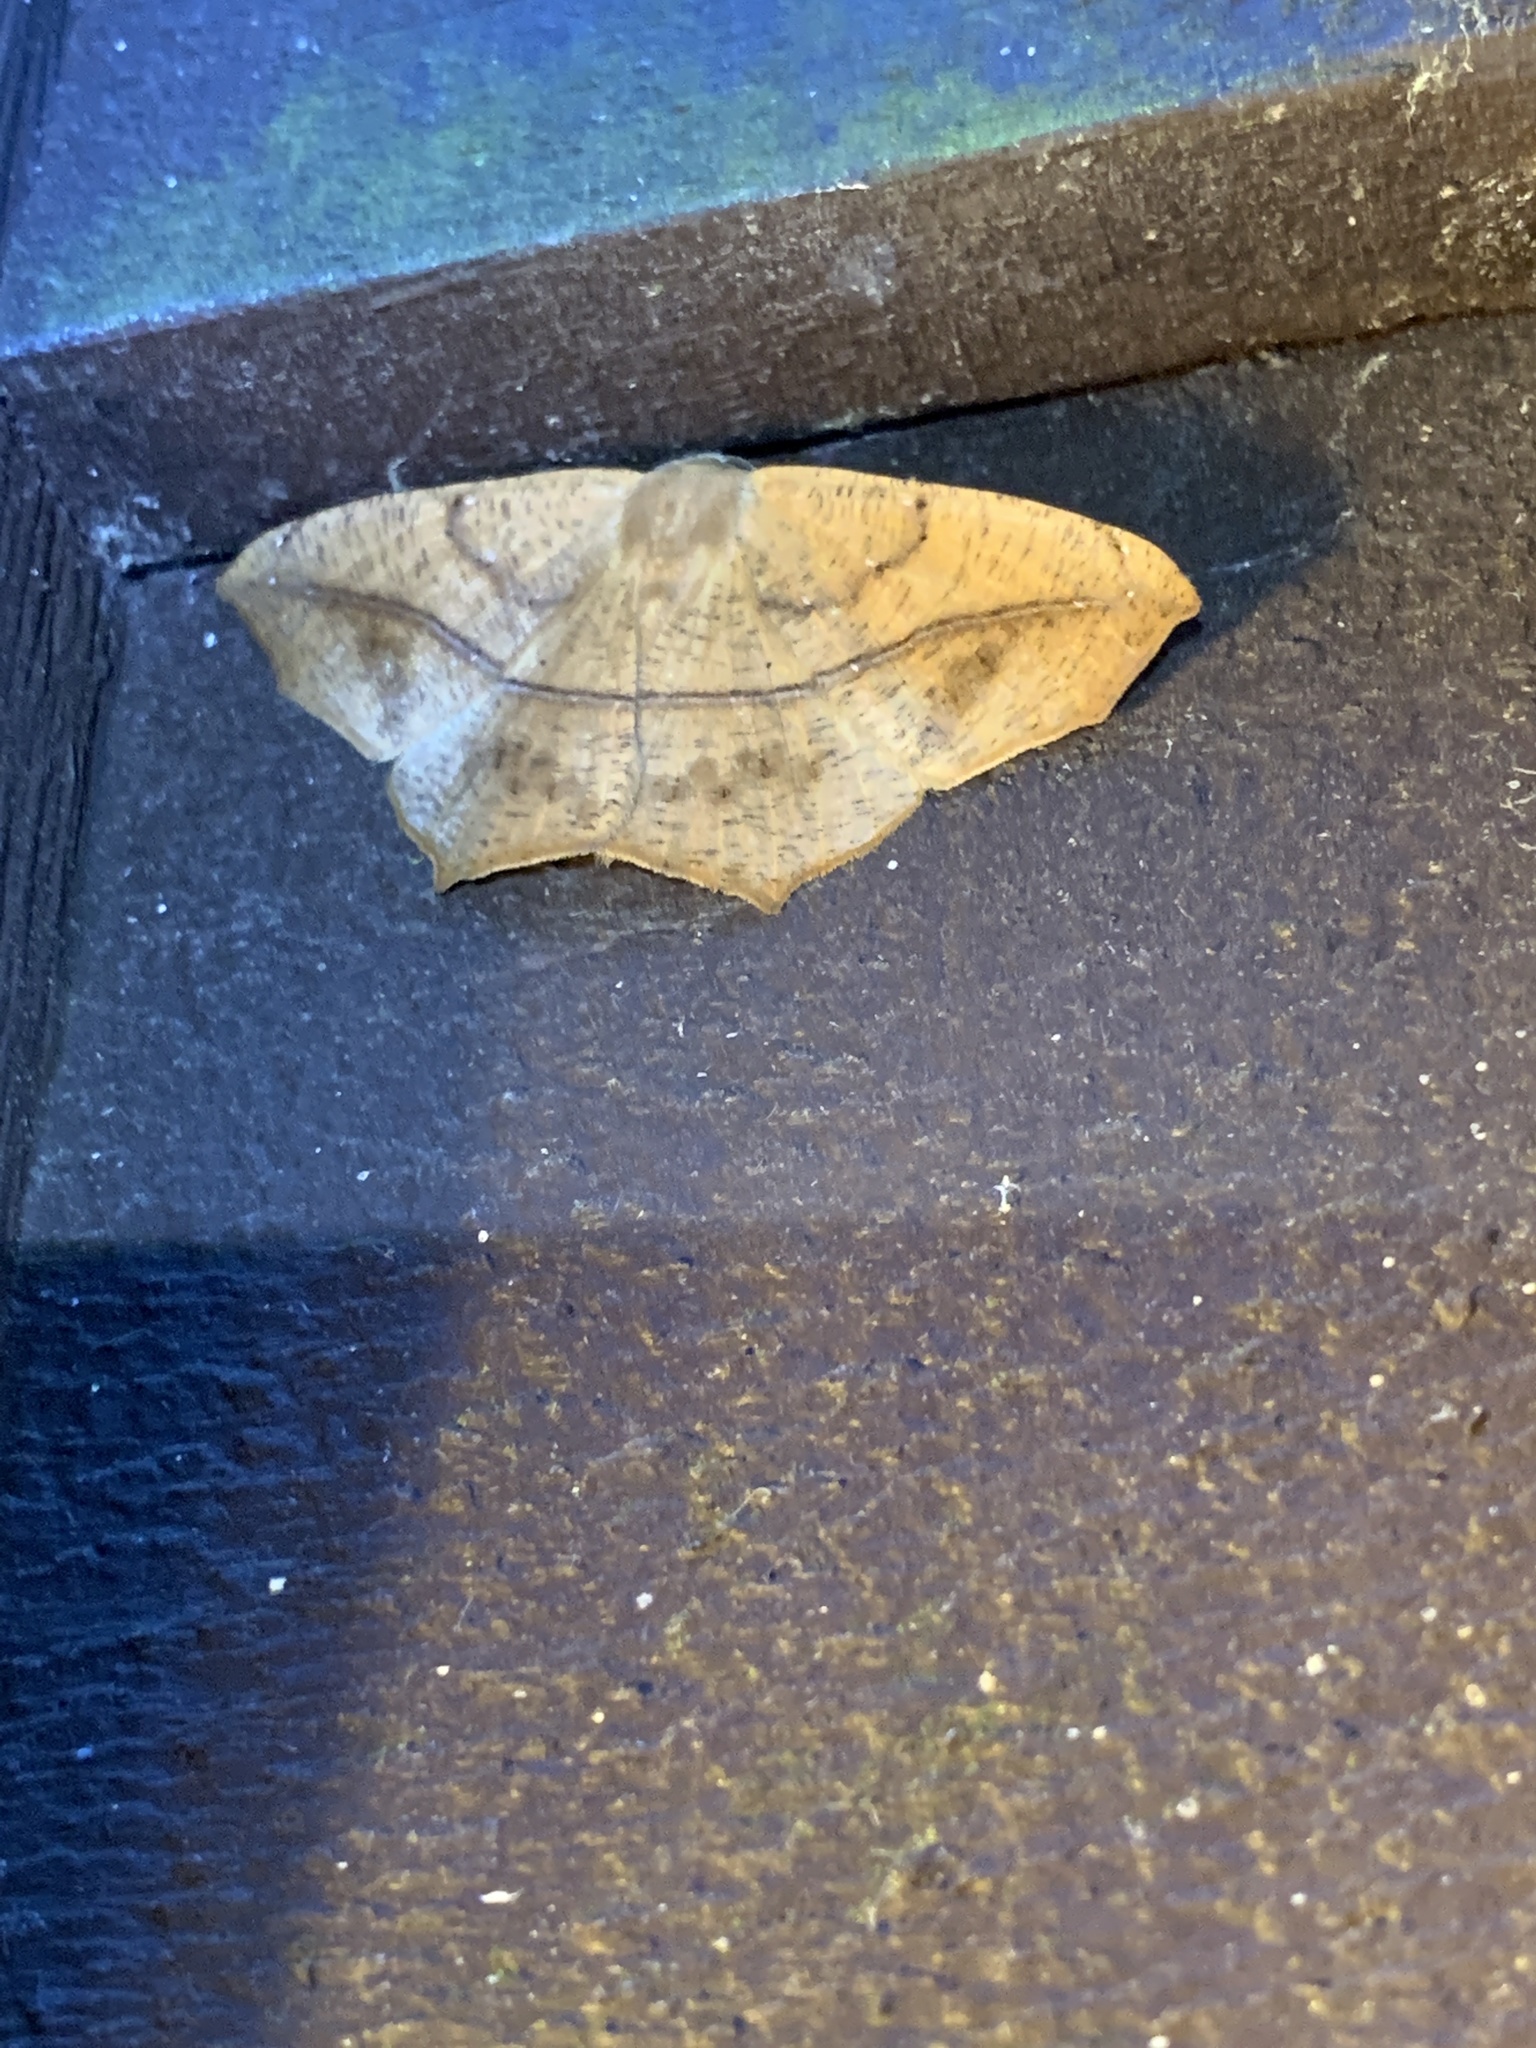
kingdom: Animalia
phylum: Arthropoda
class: Insecta
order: Lepidoptera
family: Geometridae
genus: Prochoerodes
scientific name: Prochoerodes lineola
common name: Large maple spanworm
